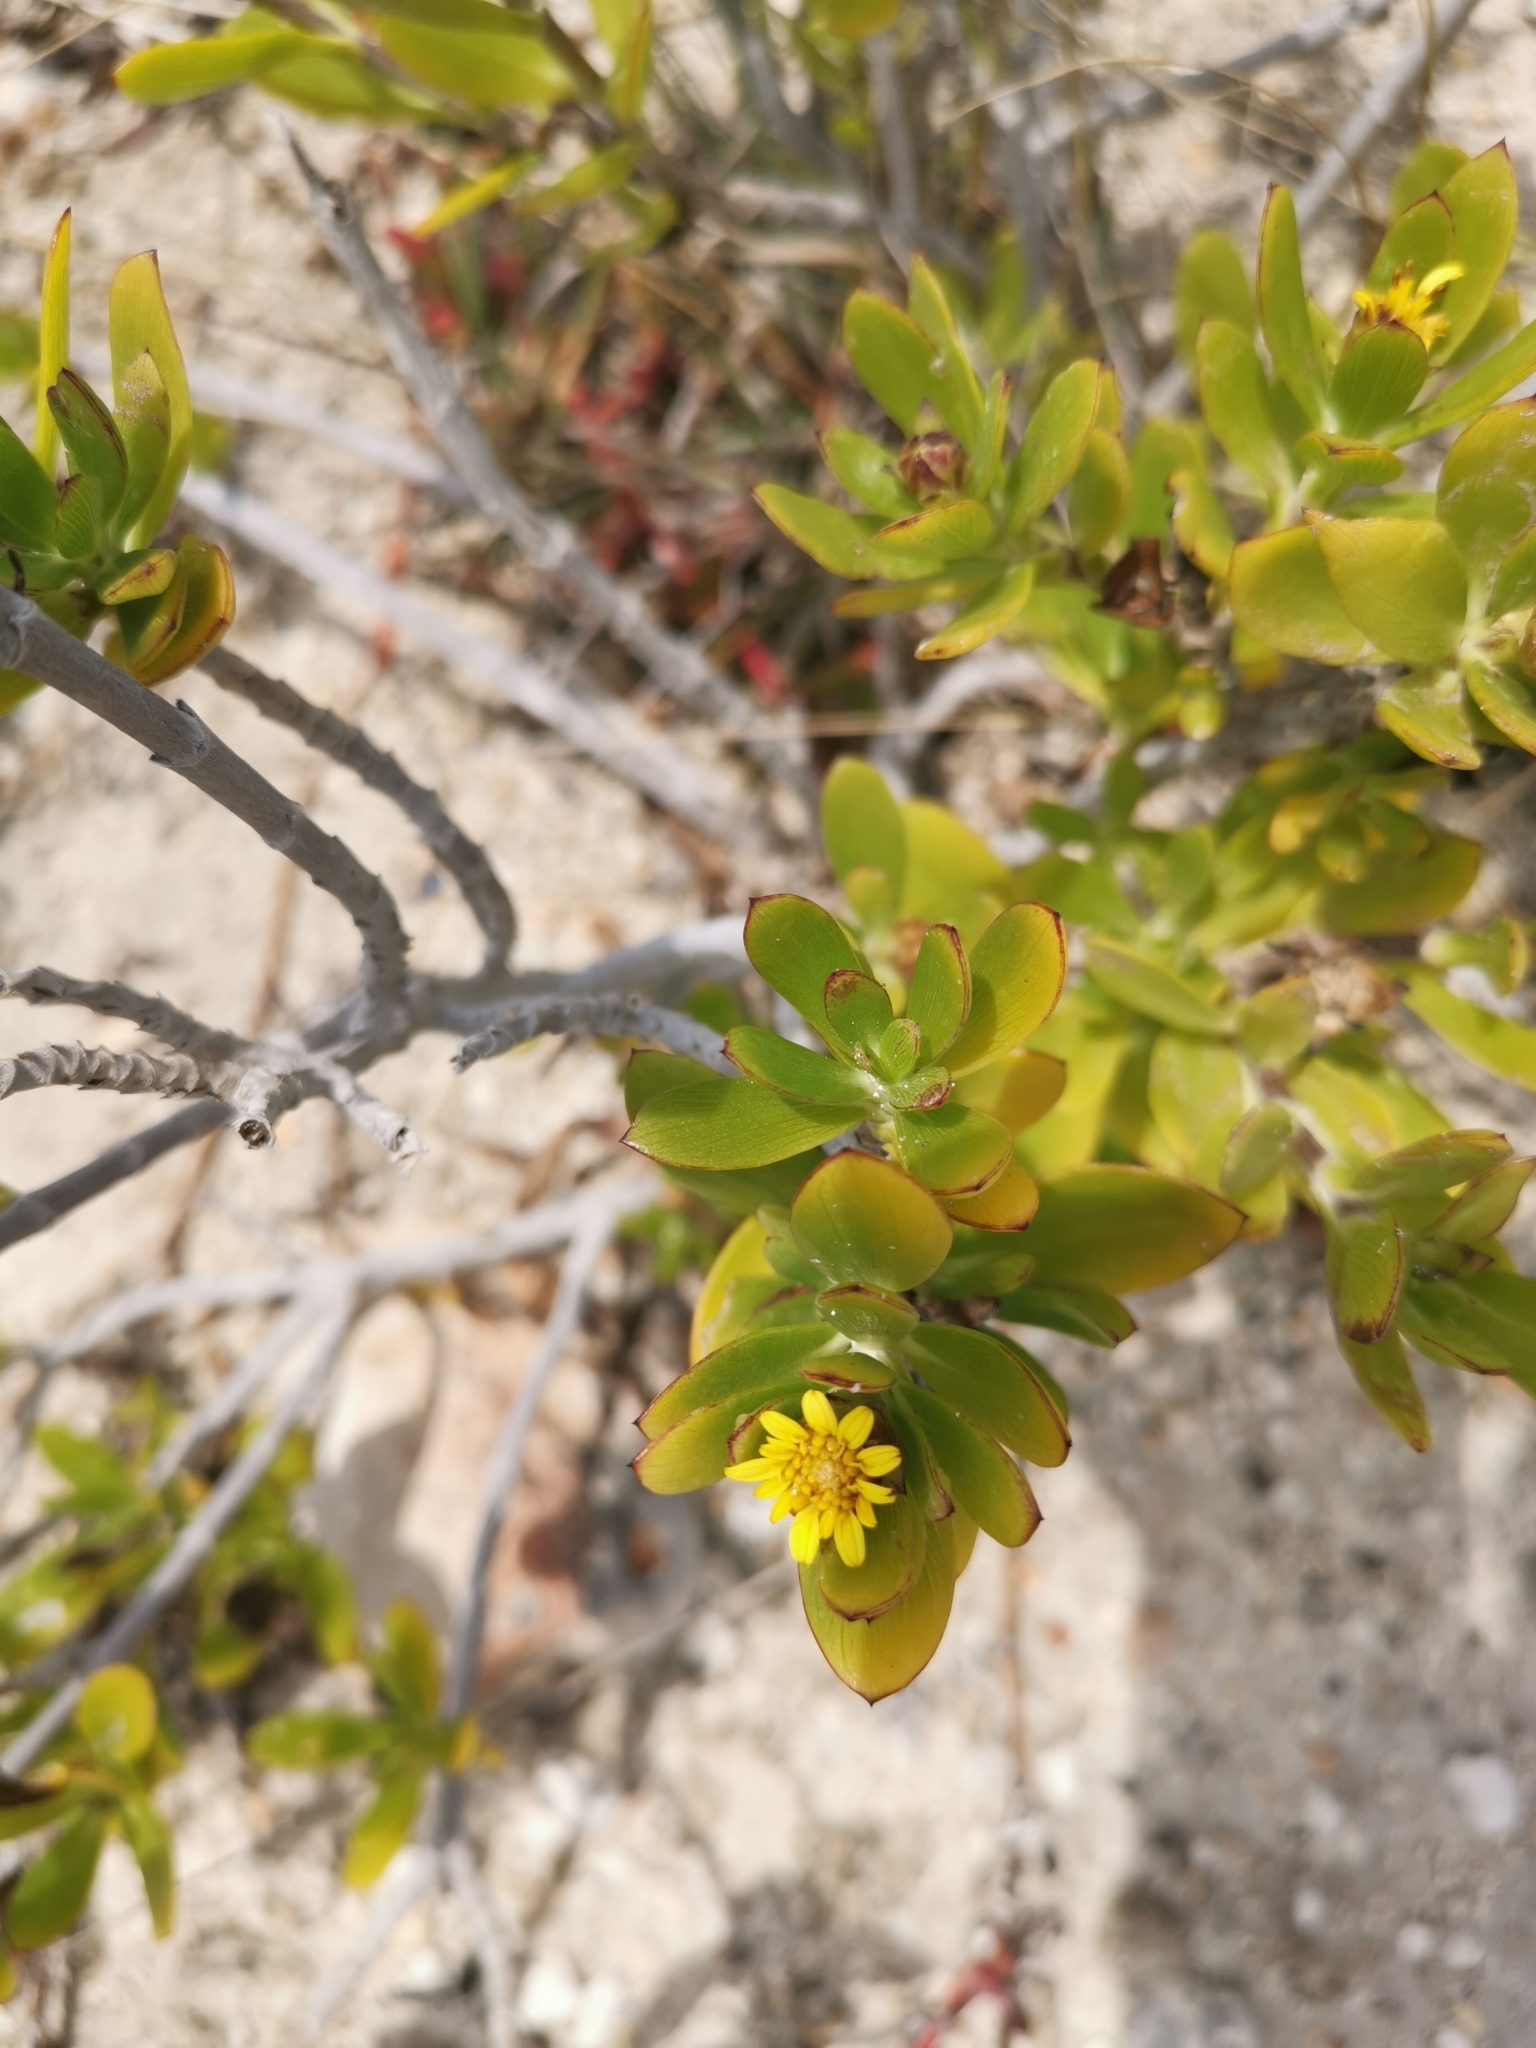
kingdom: Plantae
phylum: Tracheophyta
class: Magnoliopsida
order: Asterales
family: Asteraceae
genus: Borrichia
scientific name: Borrichia arborescens
